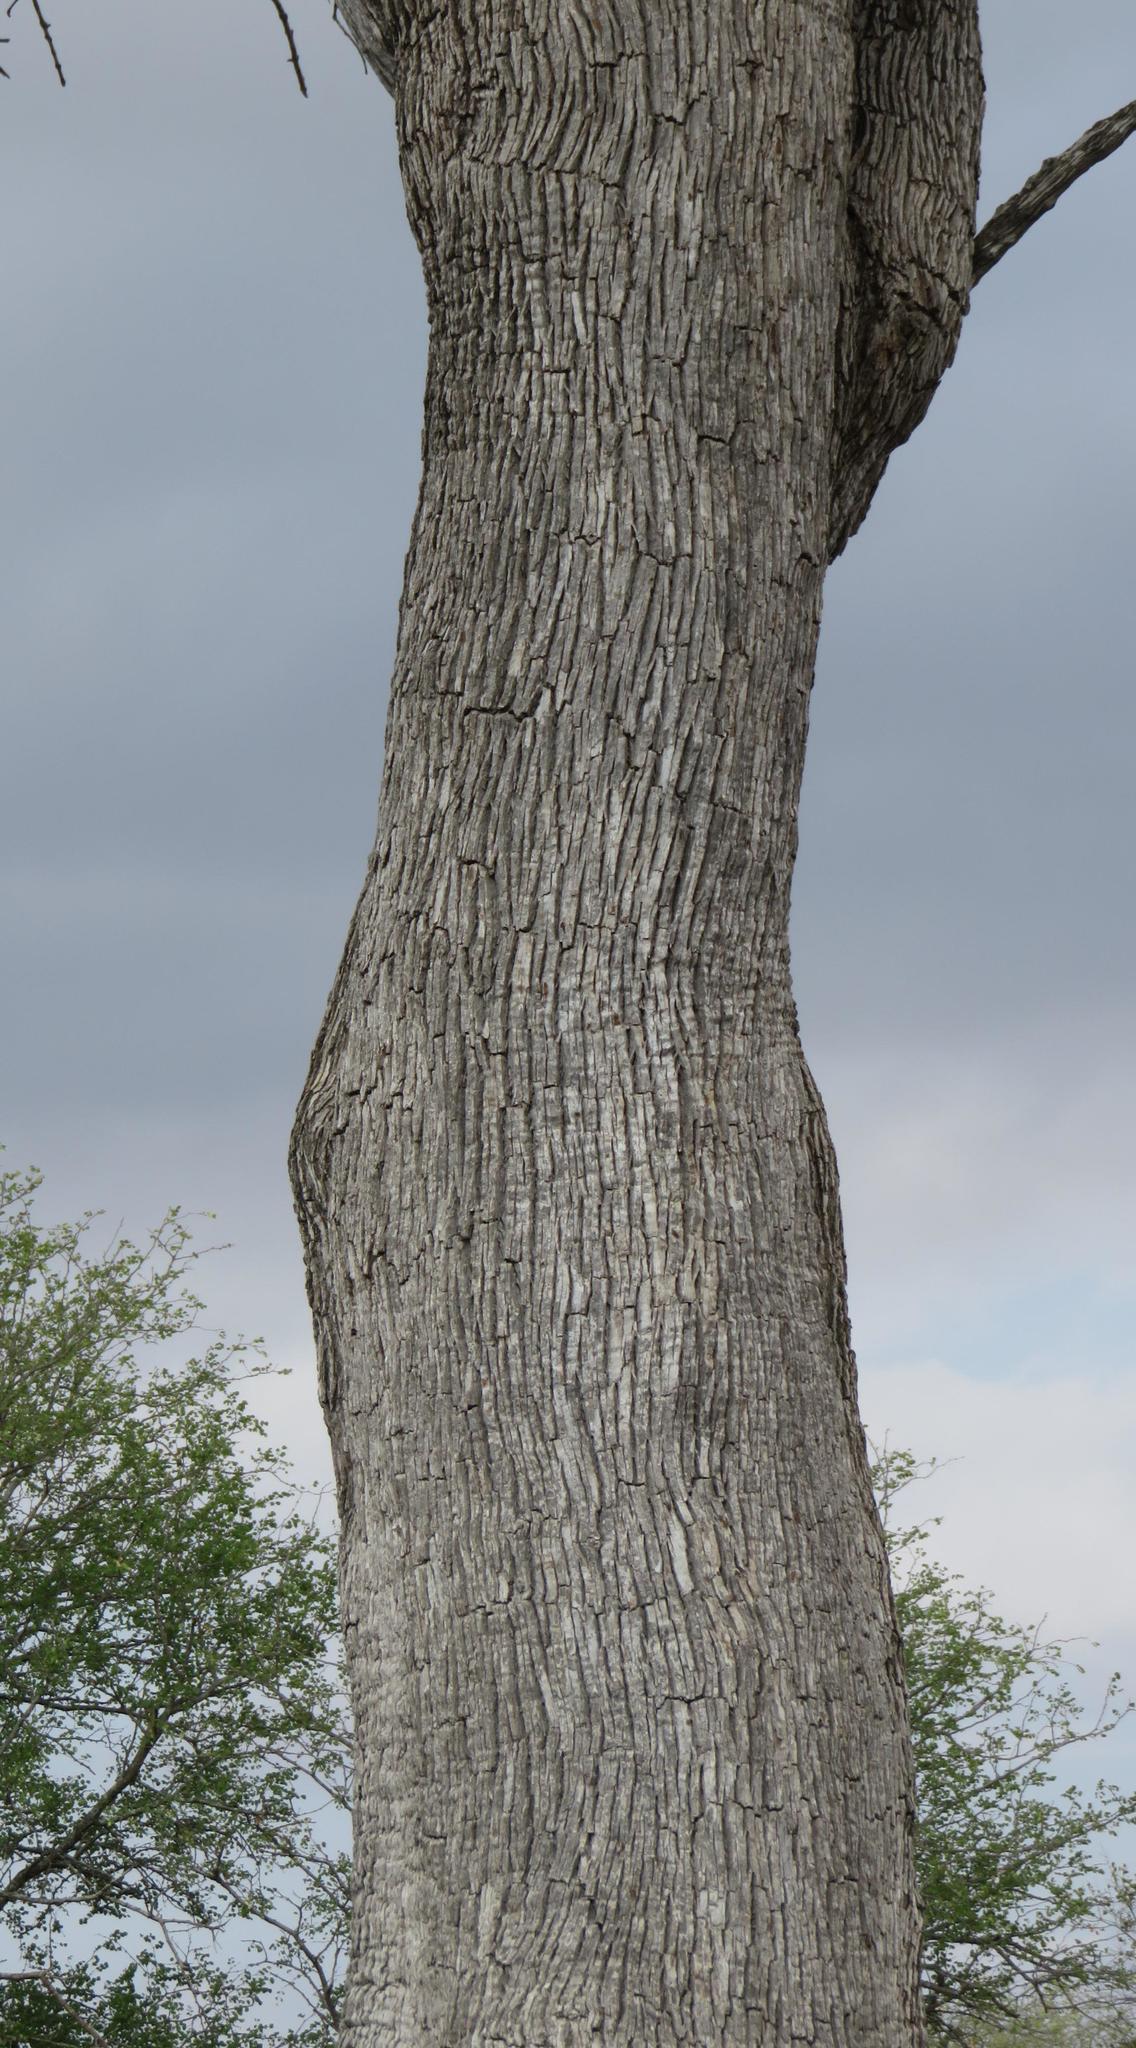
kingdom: Plantae
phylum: Tracheophyta
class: Magnoliopsida
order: Myrtales
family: Combretaceae
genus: Combretum
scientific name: Combretum imberbe
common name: Leadwood
